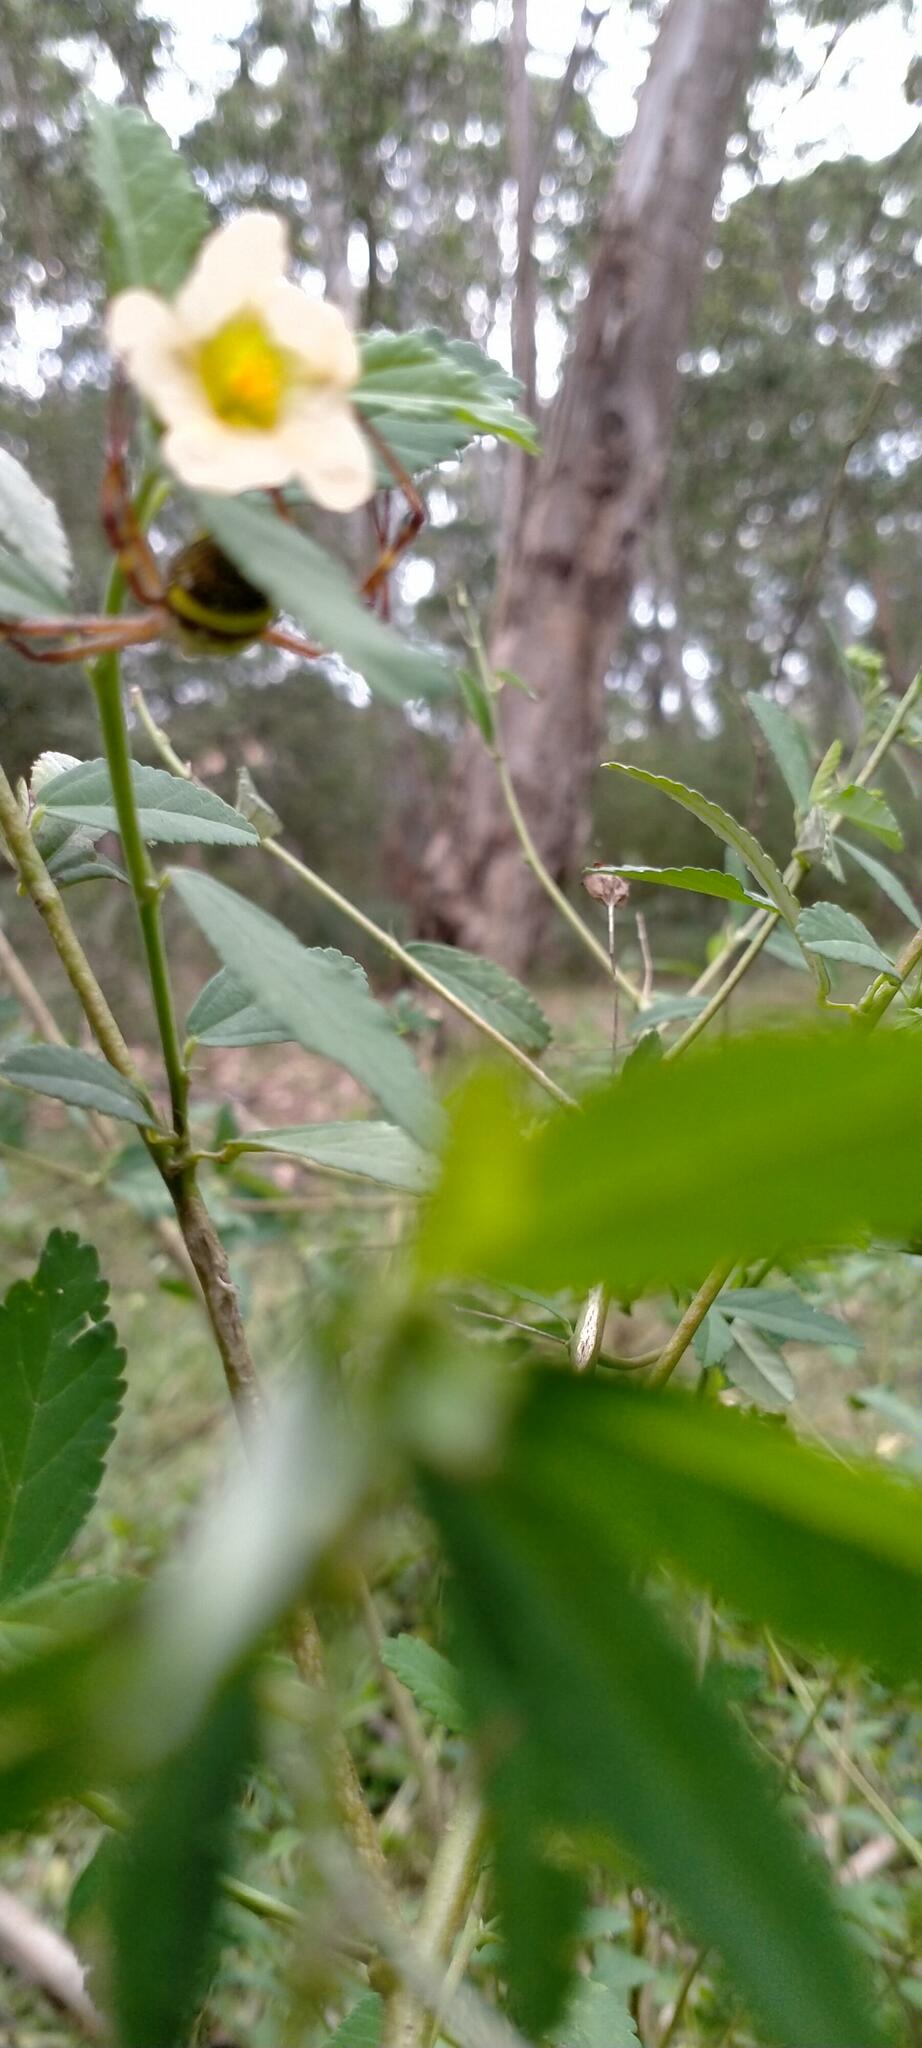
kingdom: Plantae
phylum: Tracheophyta
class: Magnoliopsida
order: Malvales
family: Malvaceae
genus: Sida
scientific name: Sida rhombifolia
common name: Queensland-hemp
